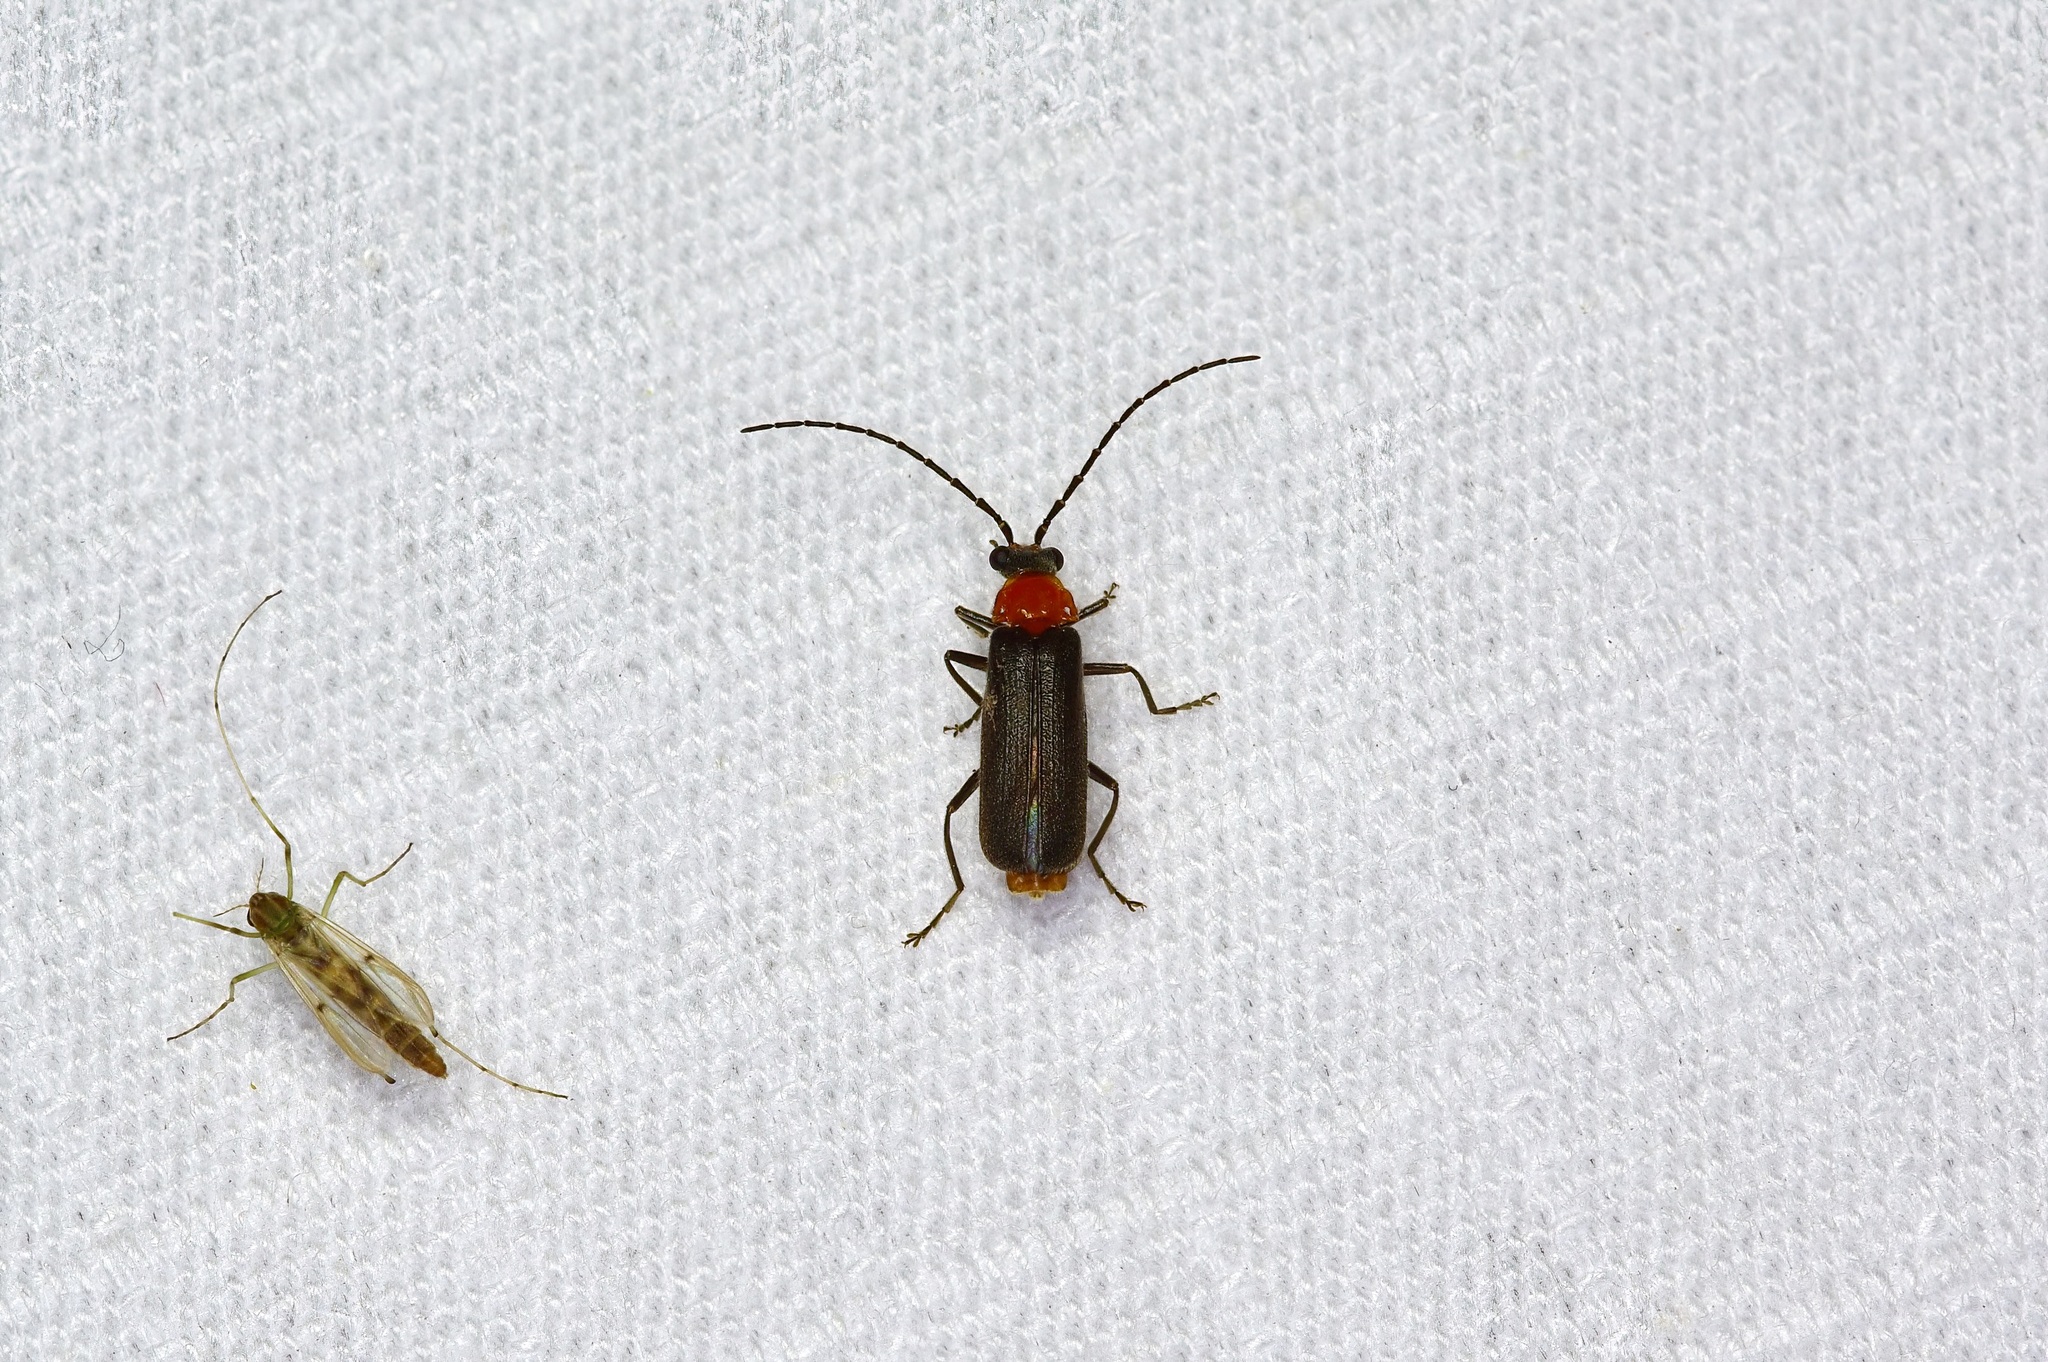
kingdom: Animalia
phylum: Arthropoda
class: Insecta
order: Coleoptera
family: Cantharidae
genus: Ditemnus
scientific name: Ditemnus
